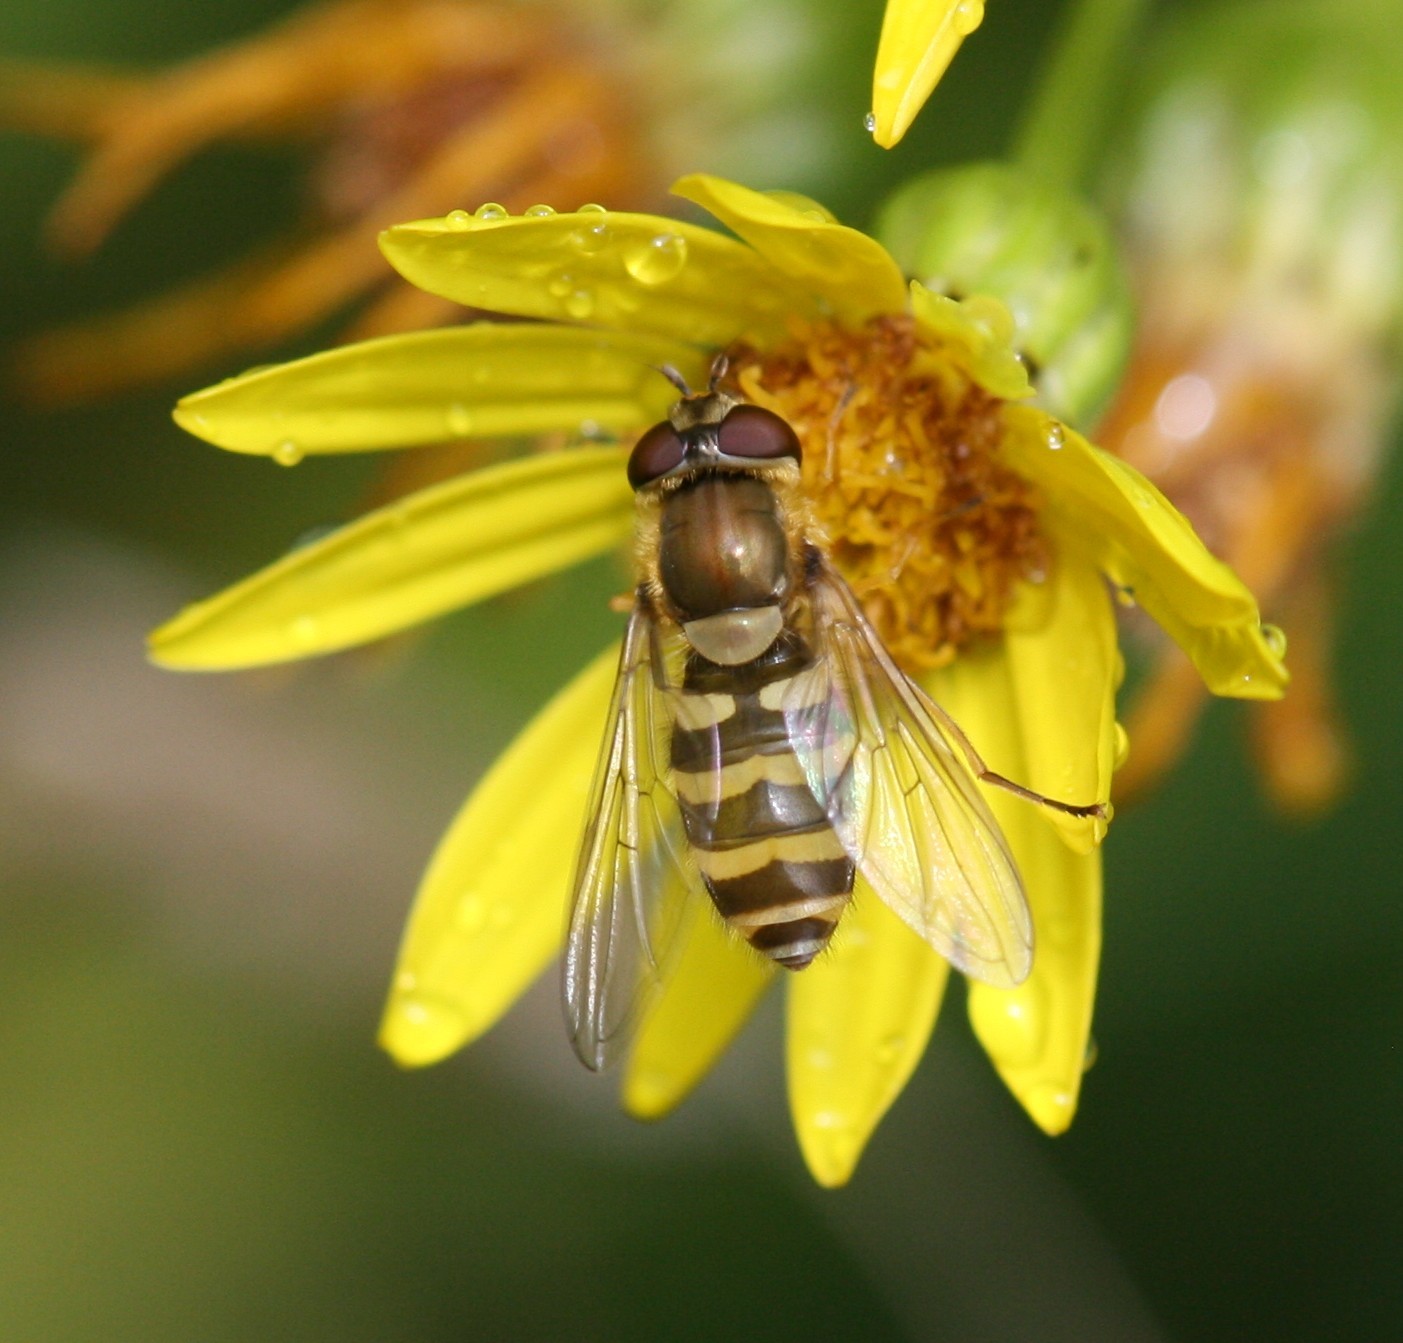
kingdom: Animalia
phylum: Arthropoda
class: Insecta
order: Diptera
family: Syrphidae
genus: Syrphus
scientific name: Syrphus
